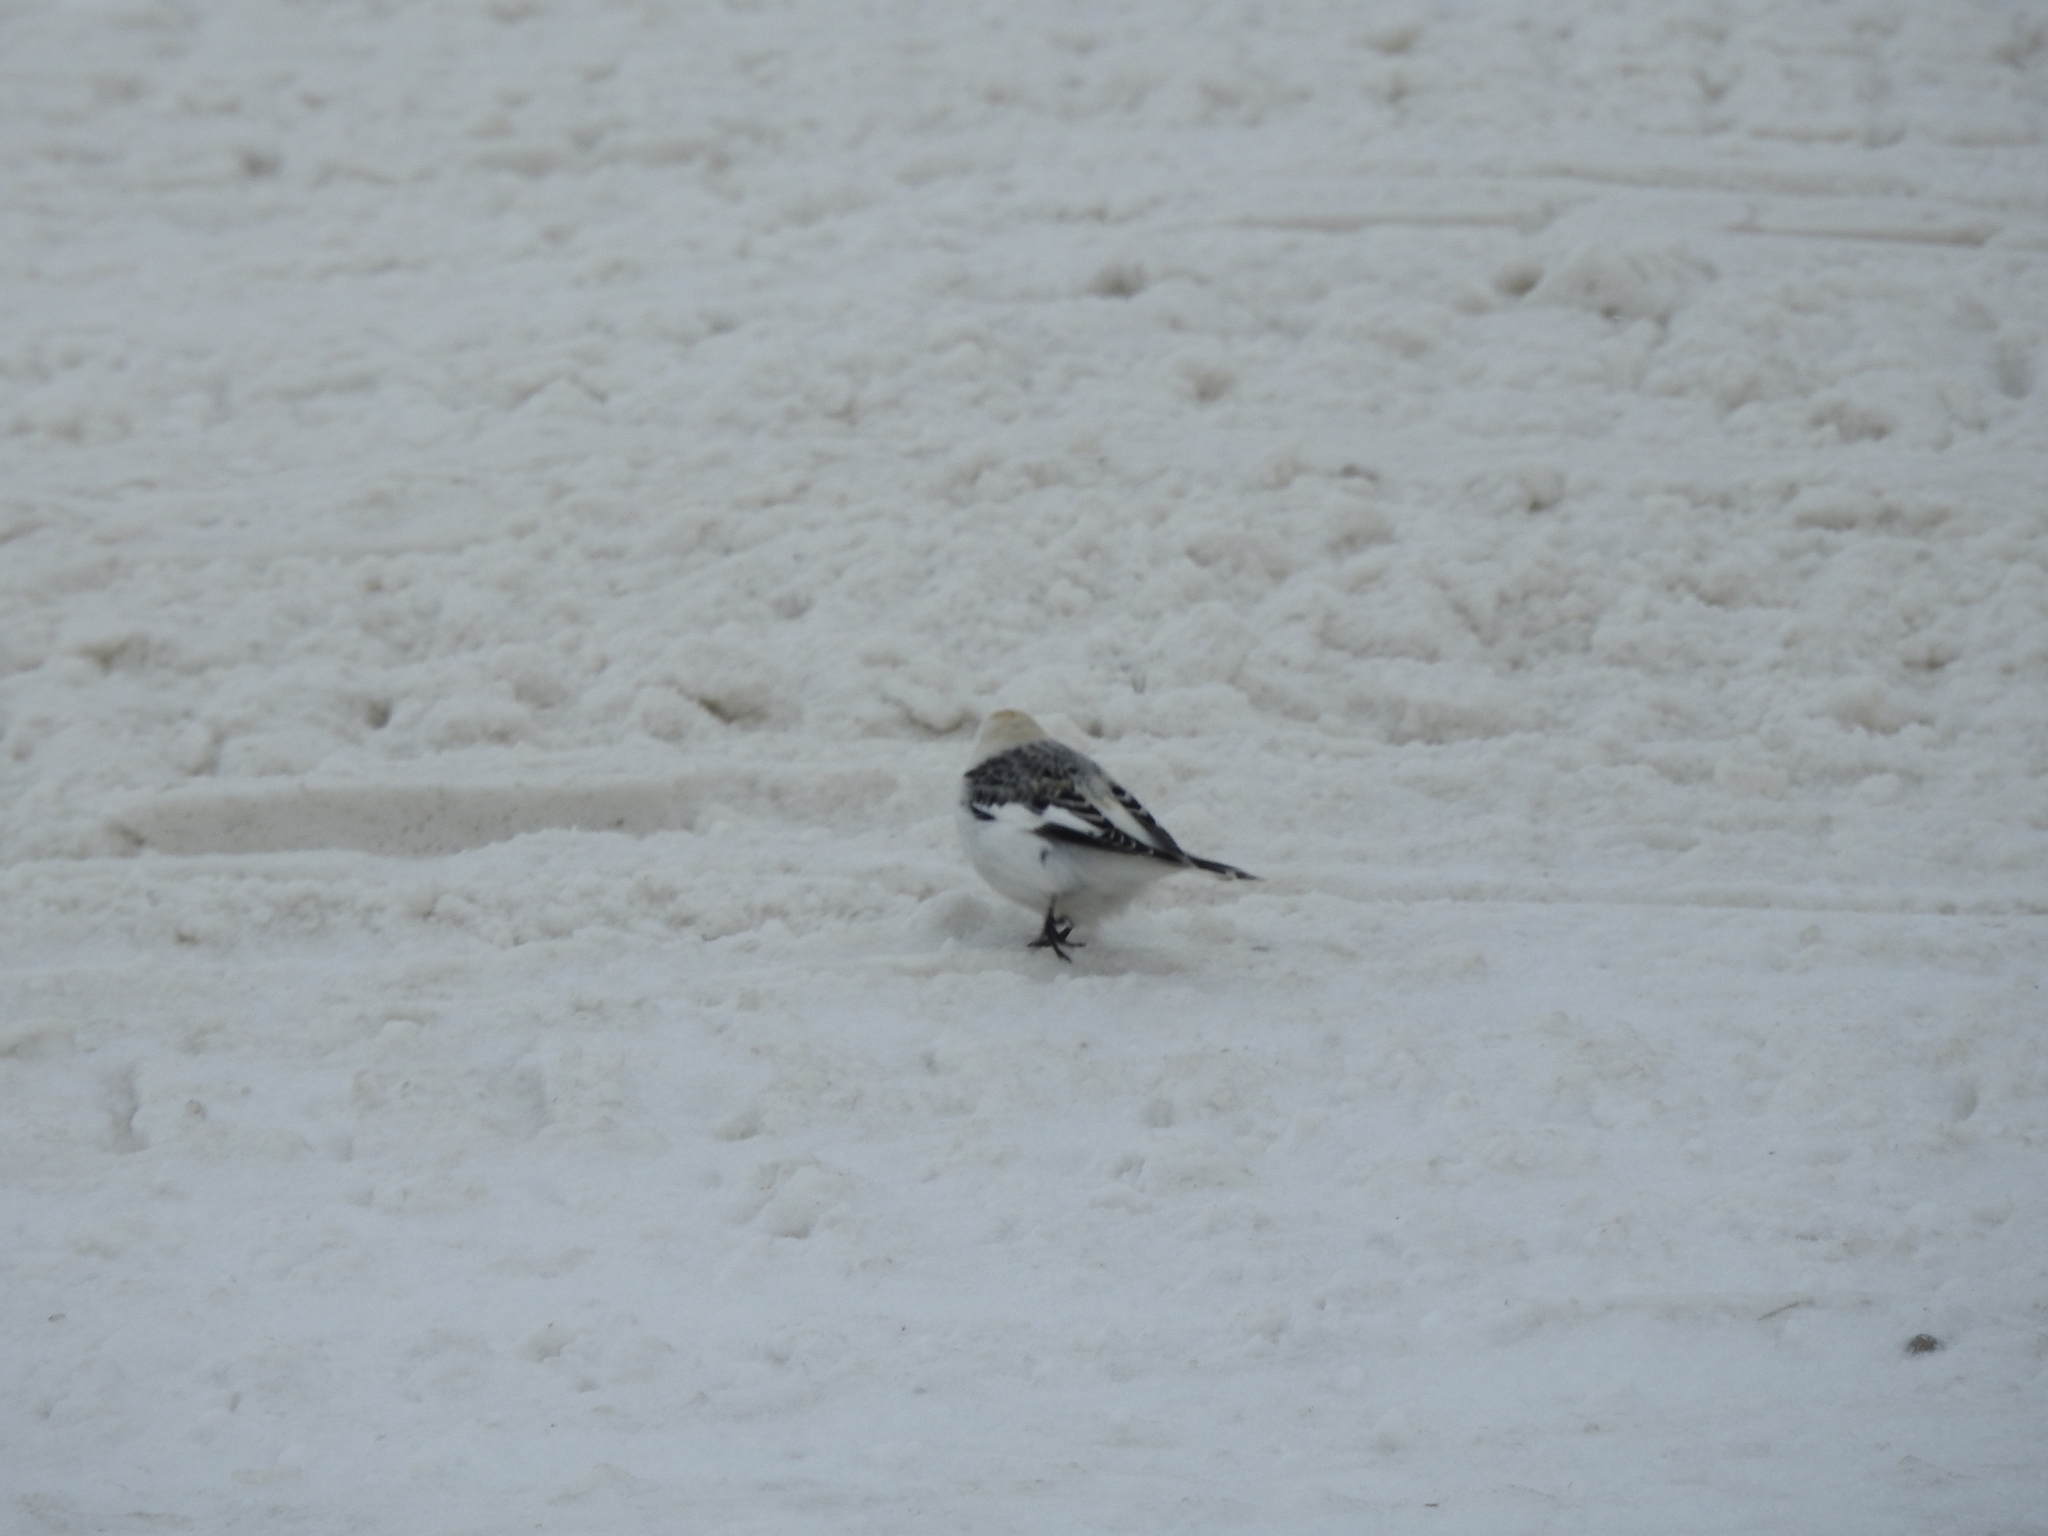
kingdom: Animalia
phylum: Chordata
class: Aves
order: Passeriformes
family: Calcariidae
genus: Plectrophenax
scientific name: Plectrophenax nivalis
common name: Snow bunting
